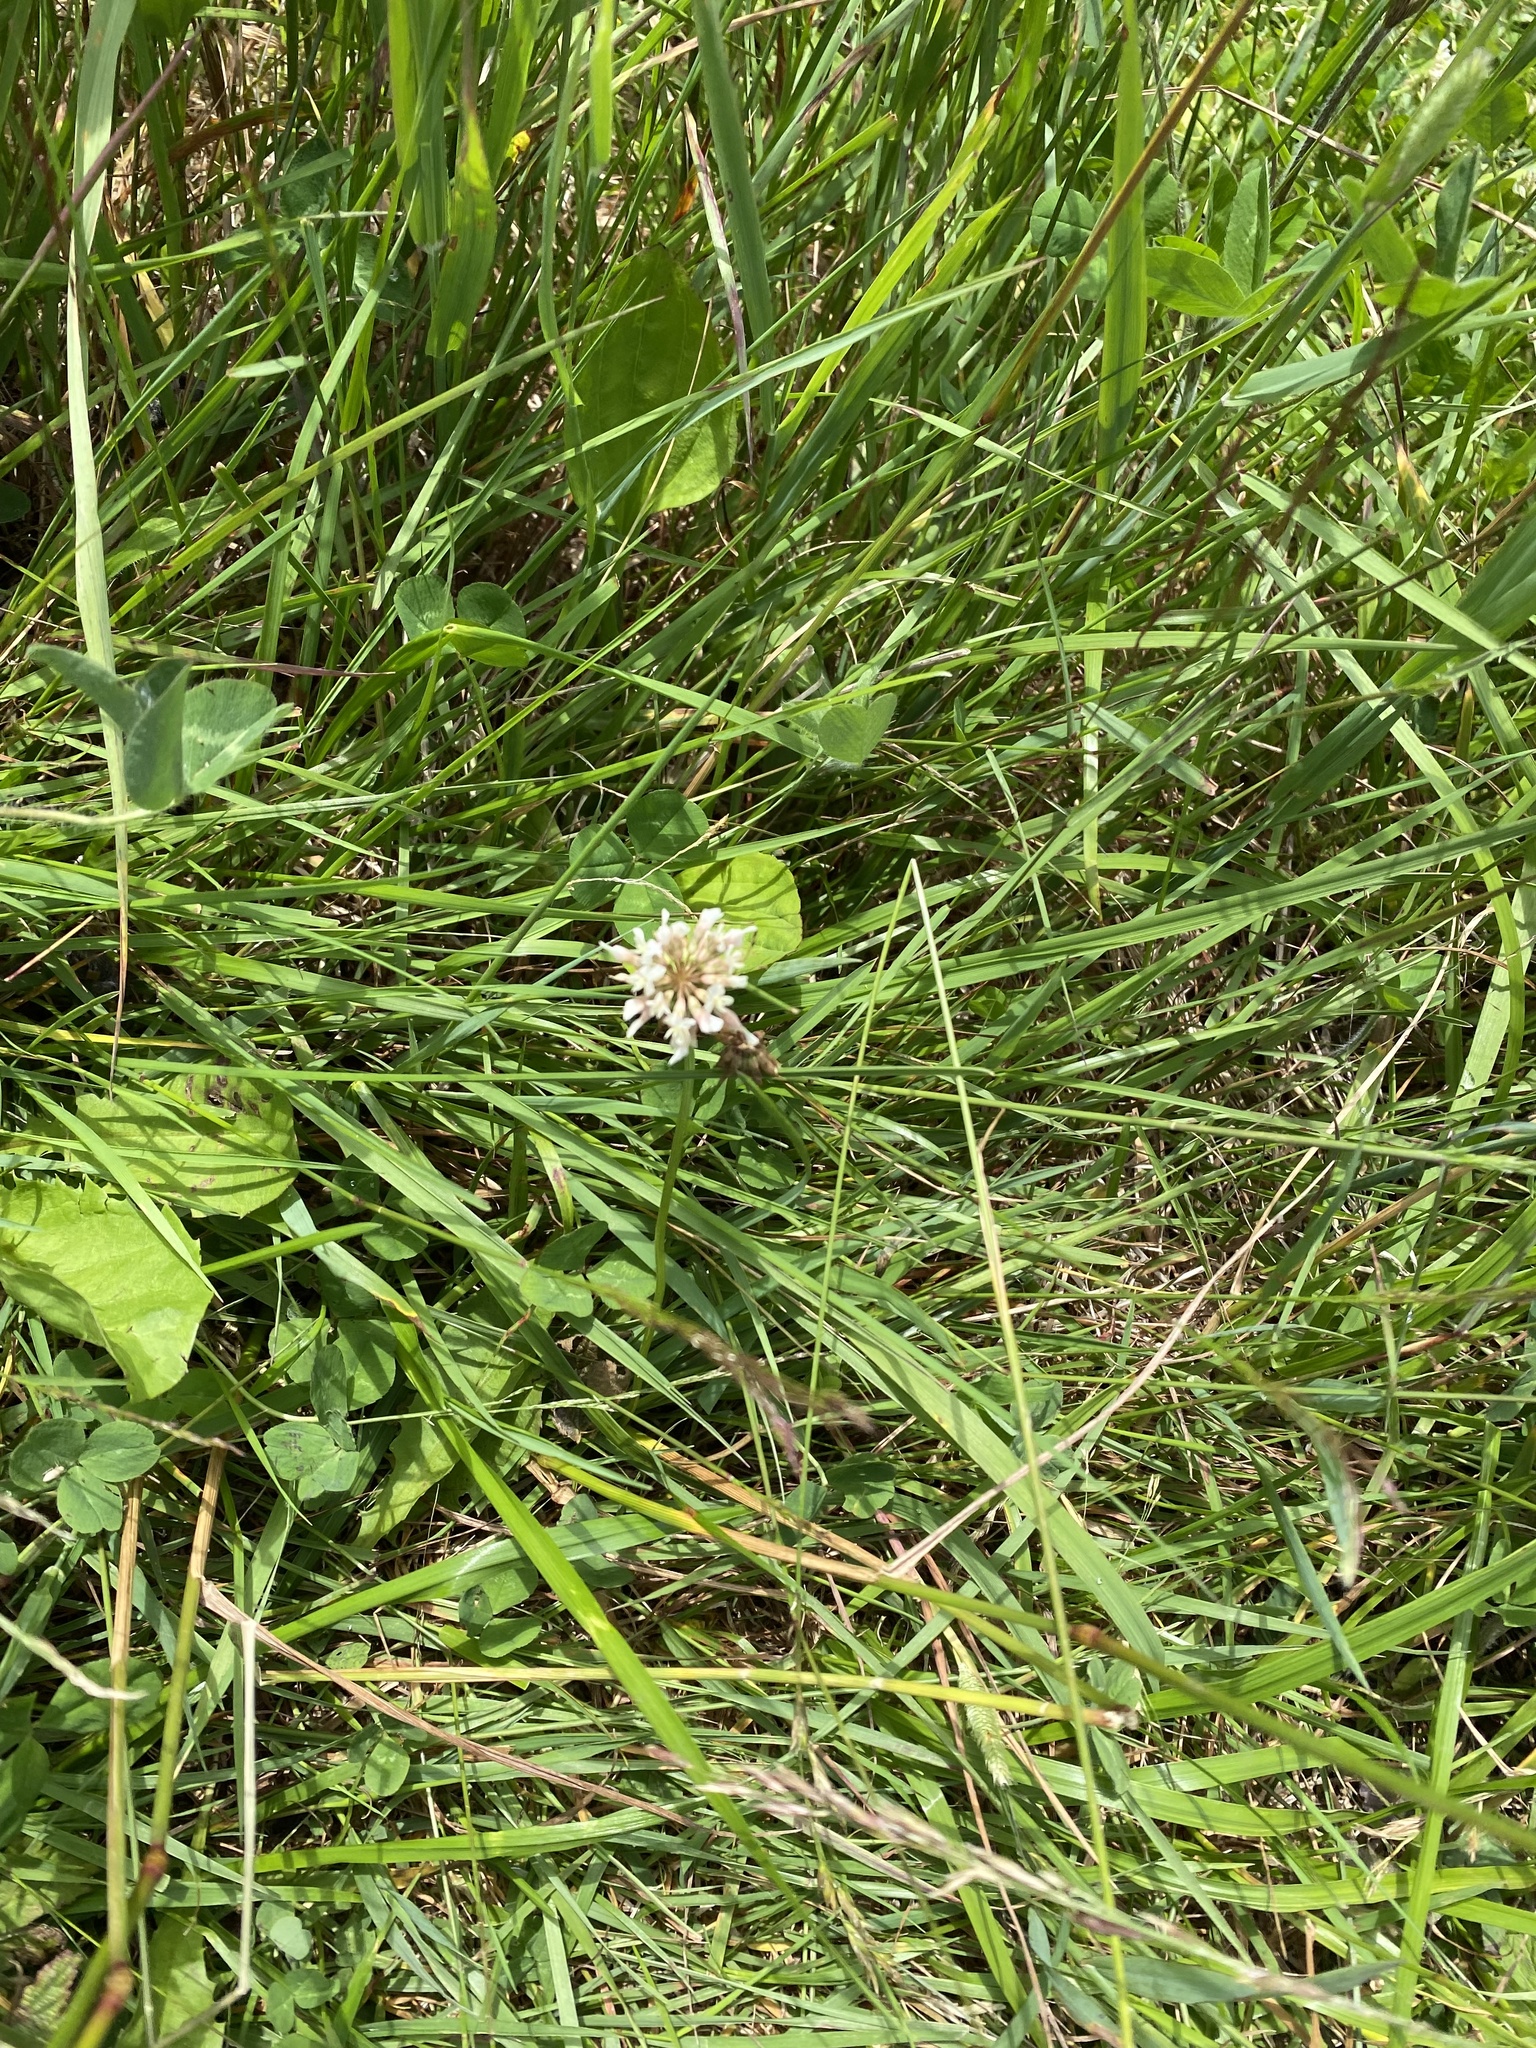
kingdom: Plantae
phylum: Tracheophyta
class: Magnoliopsida
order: Fabales
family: Fabaceae
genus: Trifolium
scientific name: Trifolium repens
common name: White clover
